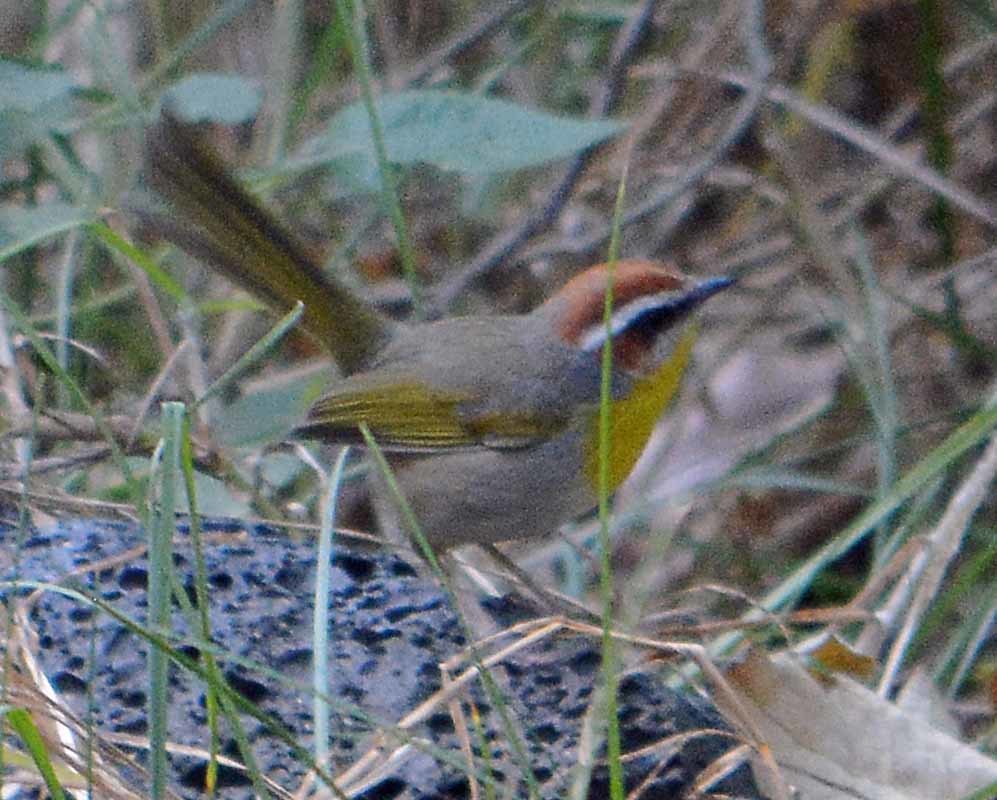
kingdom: Animalia
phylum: Chordata
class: Aves
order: Passeriformes
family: Parulidae
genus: Basileuterus
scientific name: Basileuterus rufifrons
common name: Rufous-capped warbler
